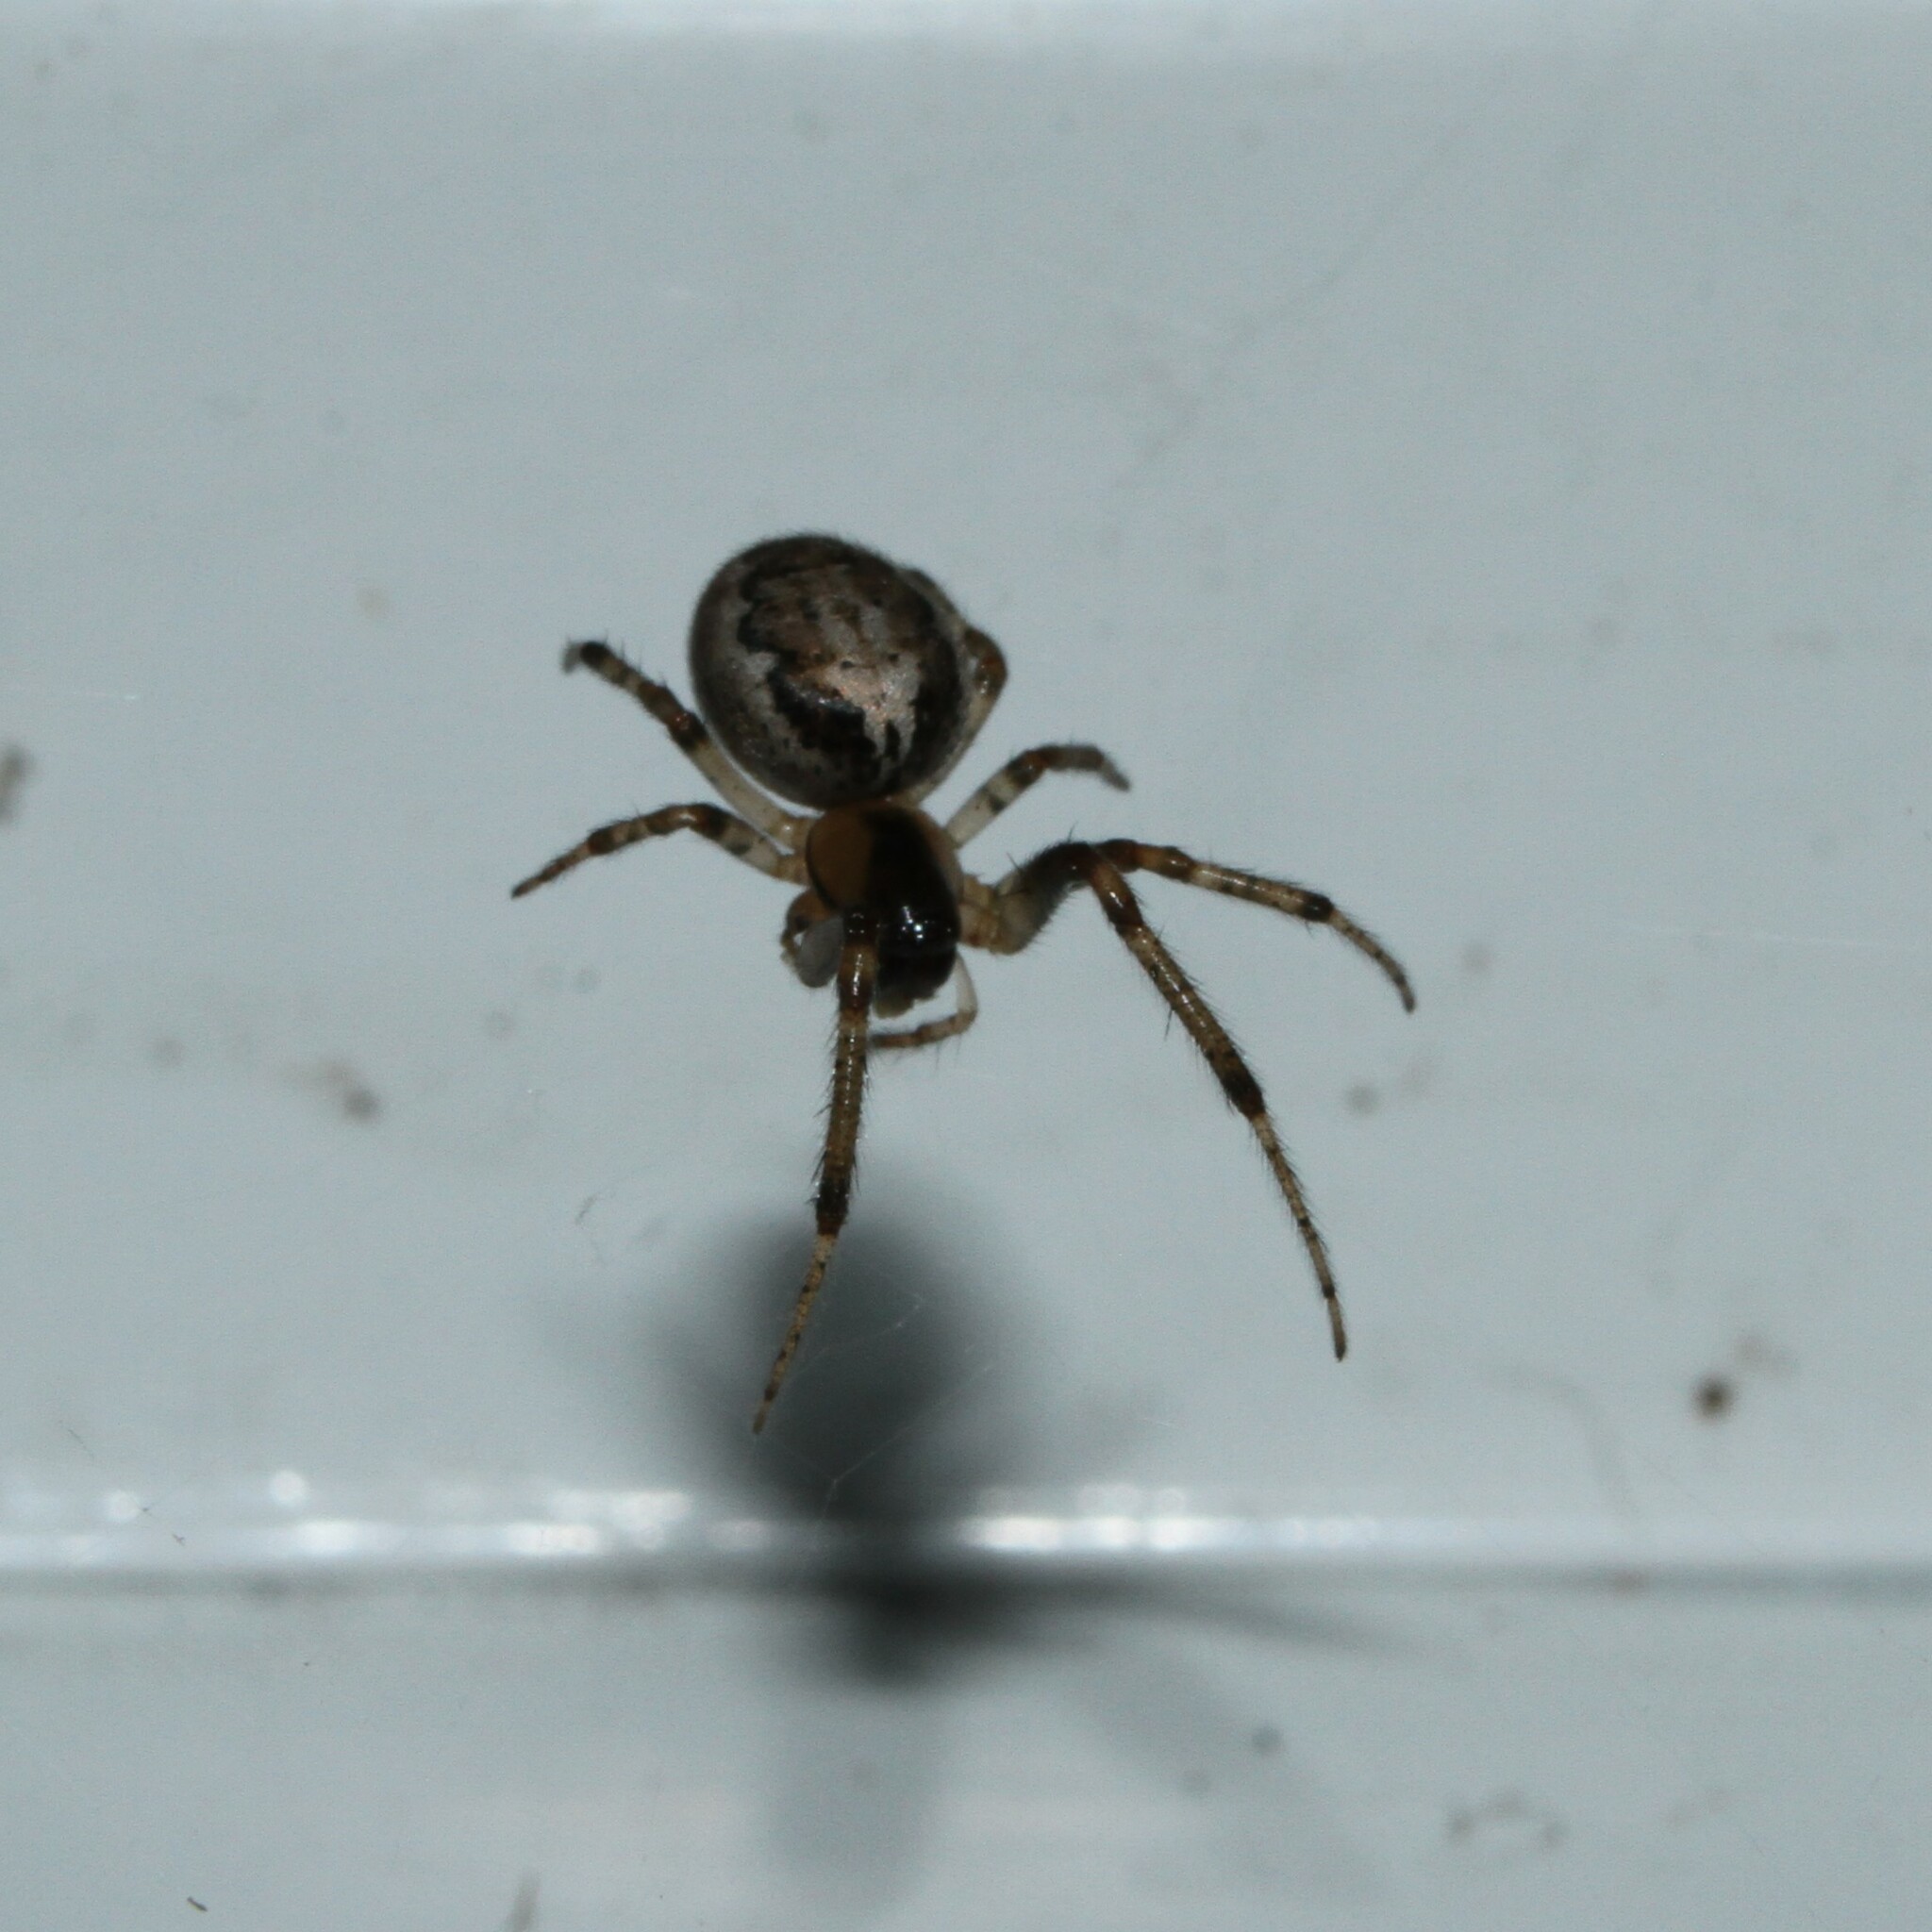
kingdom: Animalia
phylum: Arthropoda
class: Arachnida
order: Araneae
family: Araneidae
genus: Zygiella
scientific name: Zygiella x-notata
